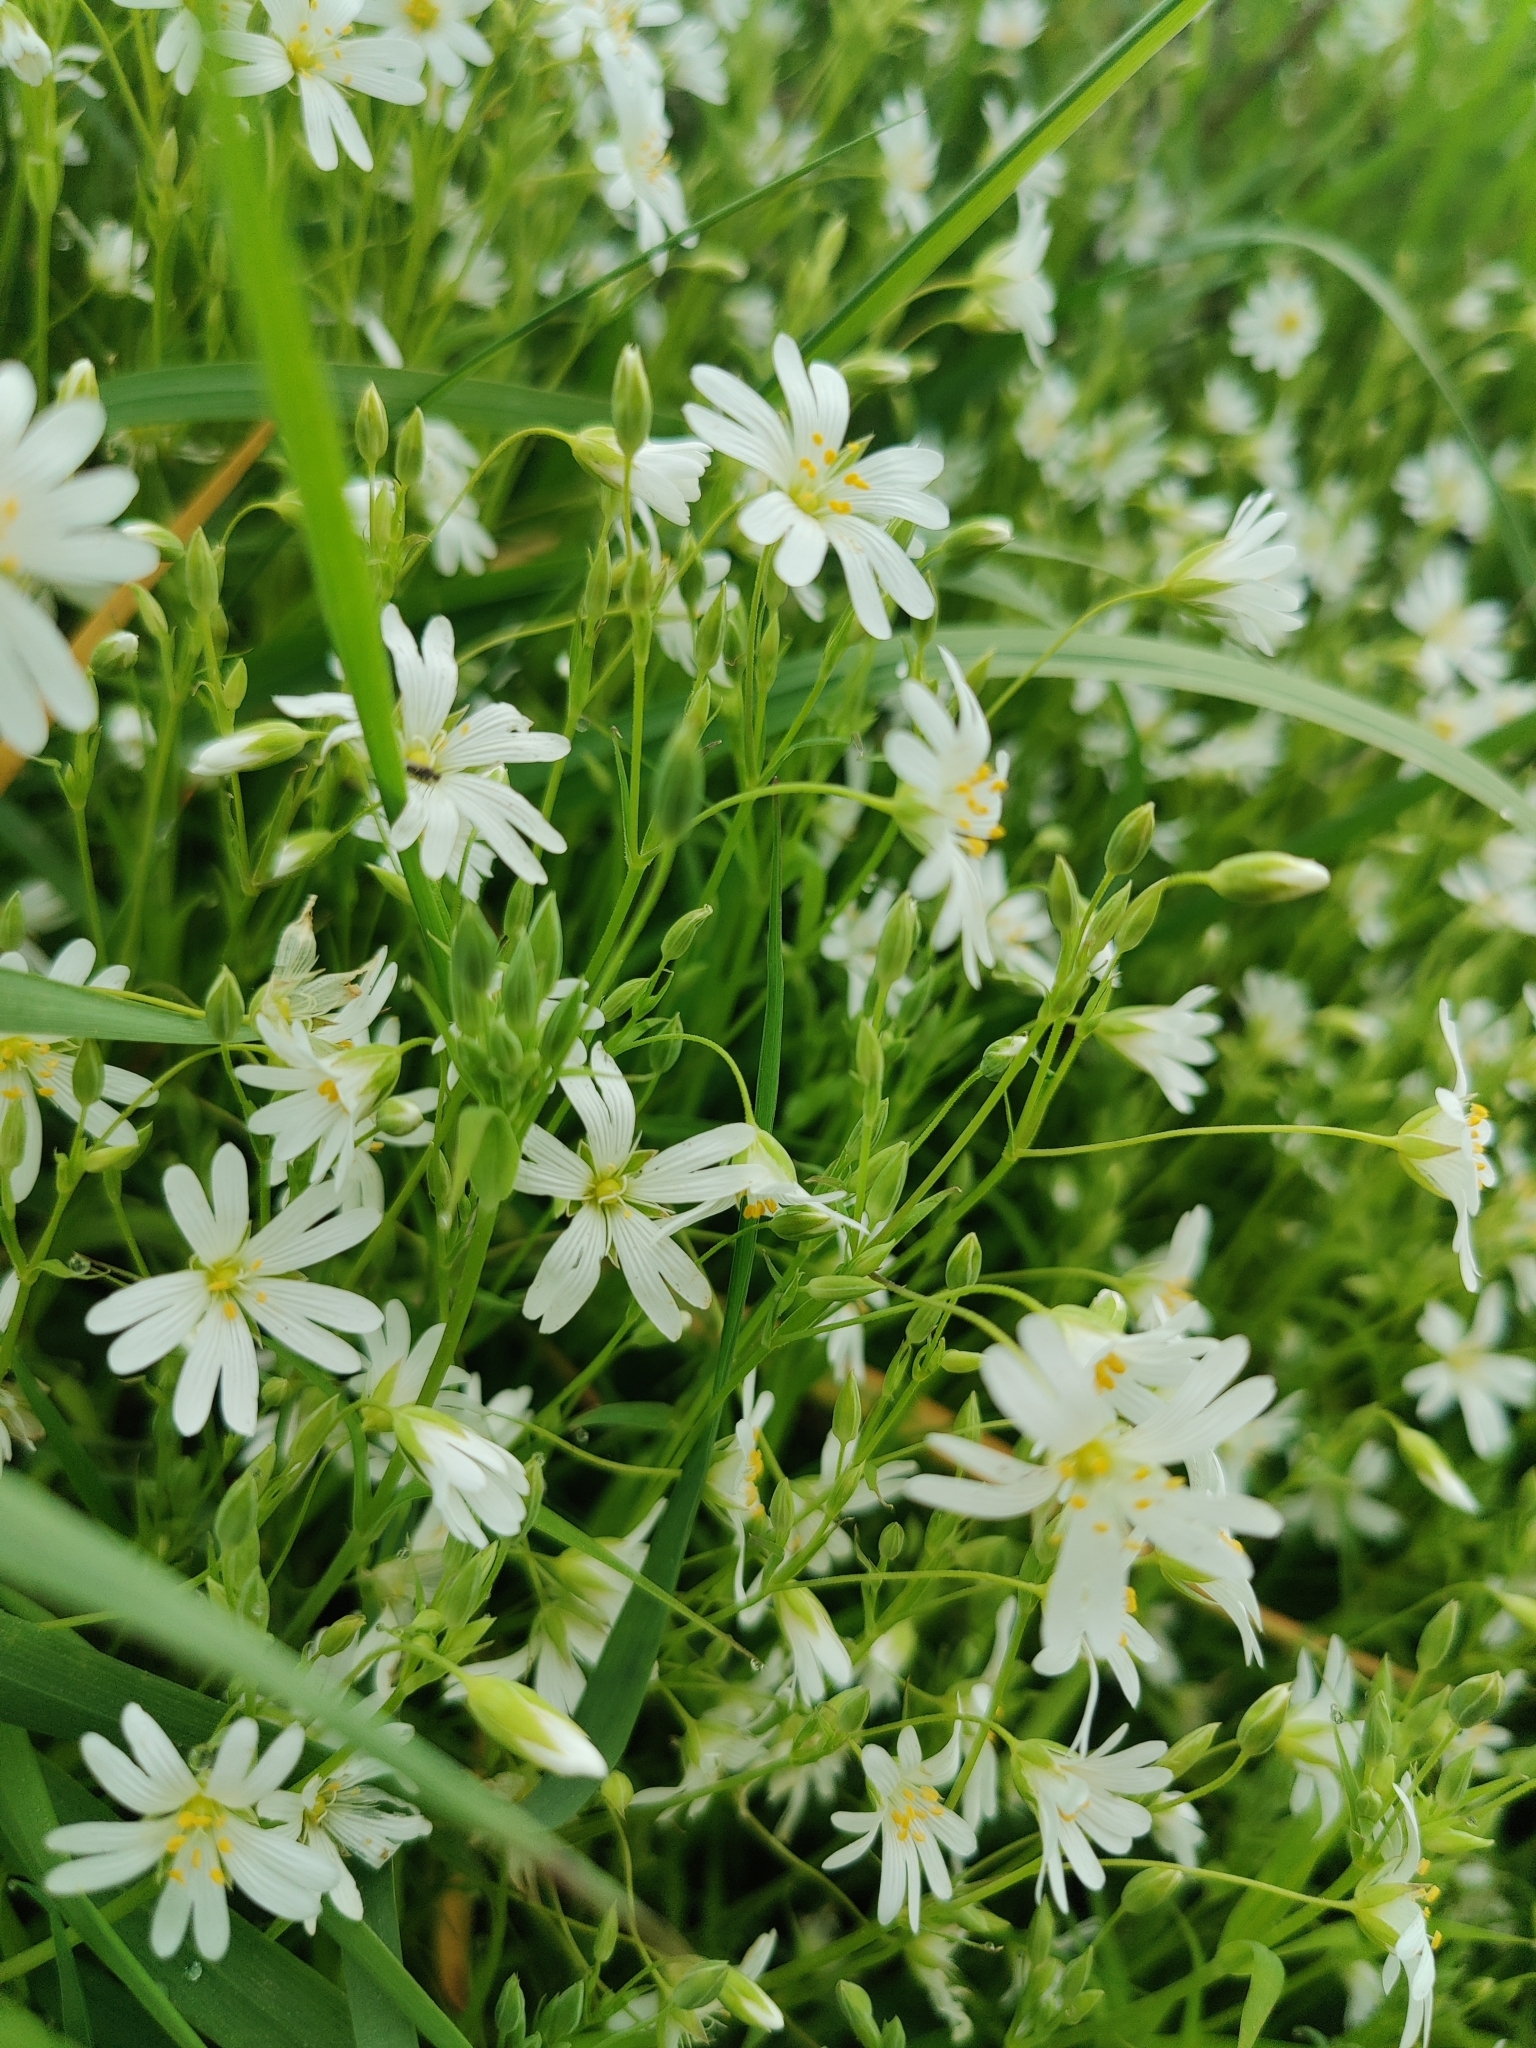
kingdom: Plantae
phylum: Tracheophyta
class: Magnoliopsida
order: Caryophyllales
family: Caryophyllaceae
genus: Rabelera
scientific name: Rabelera holostea
